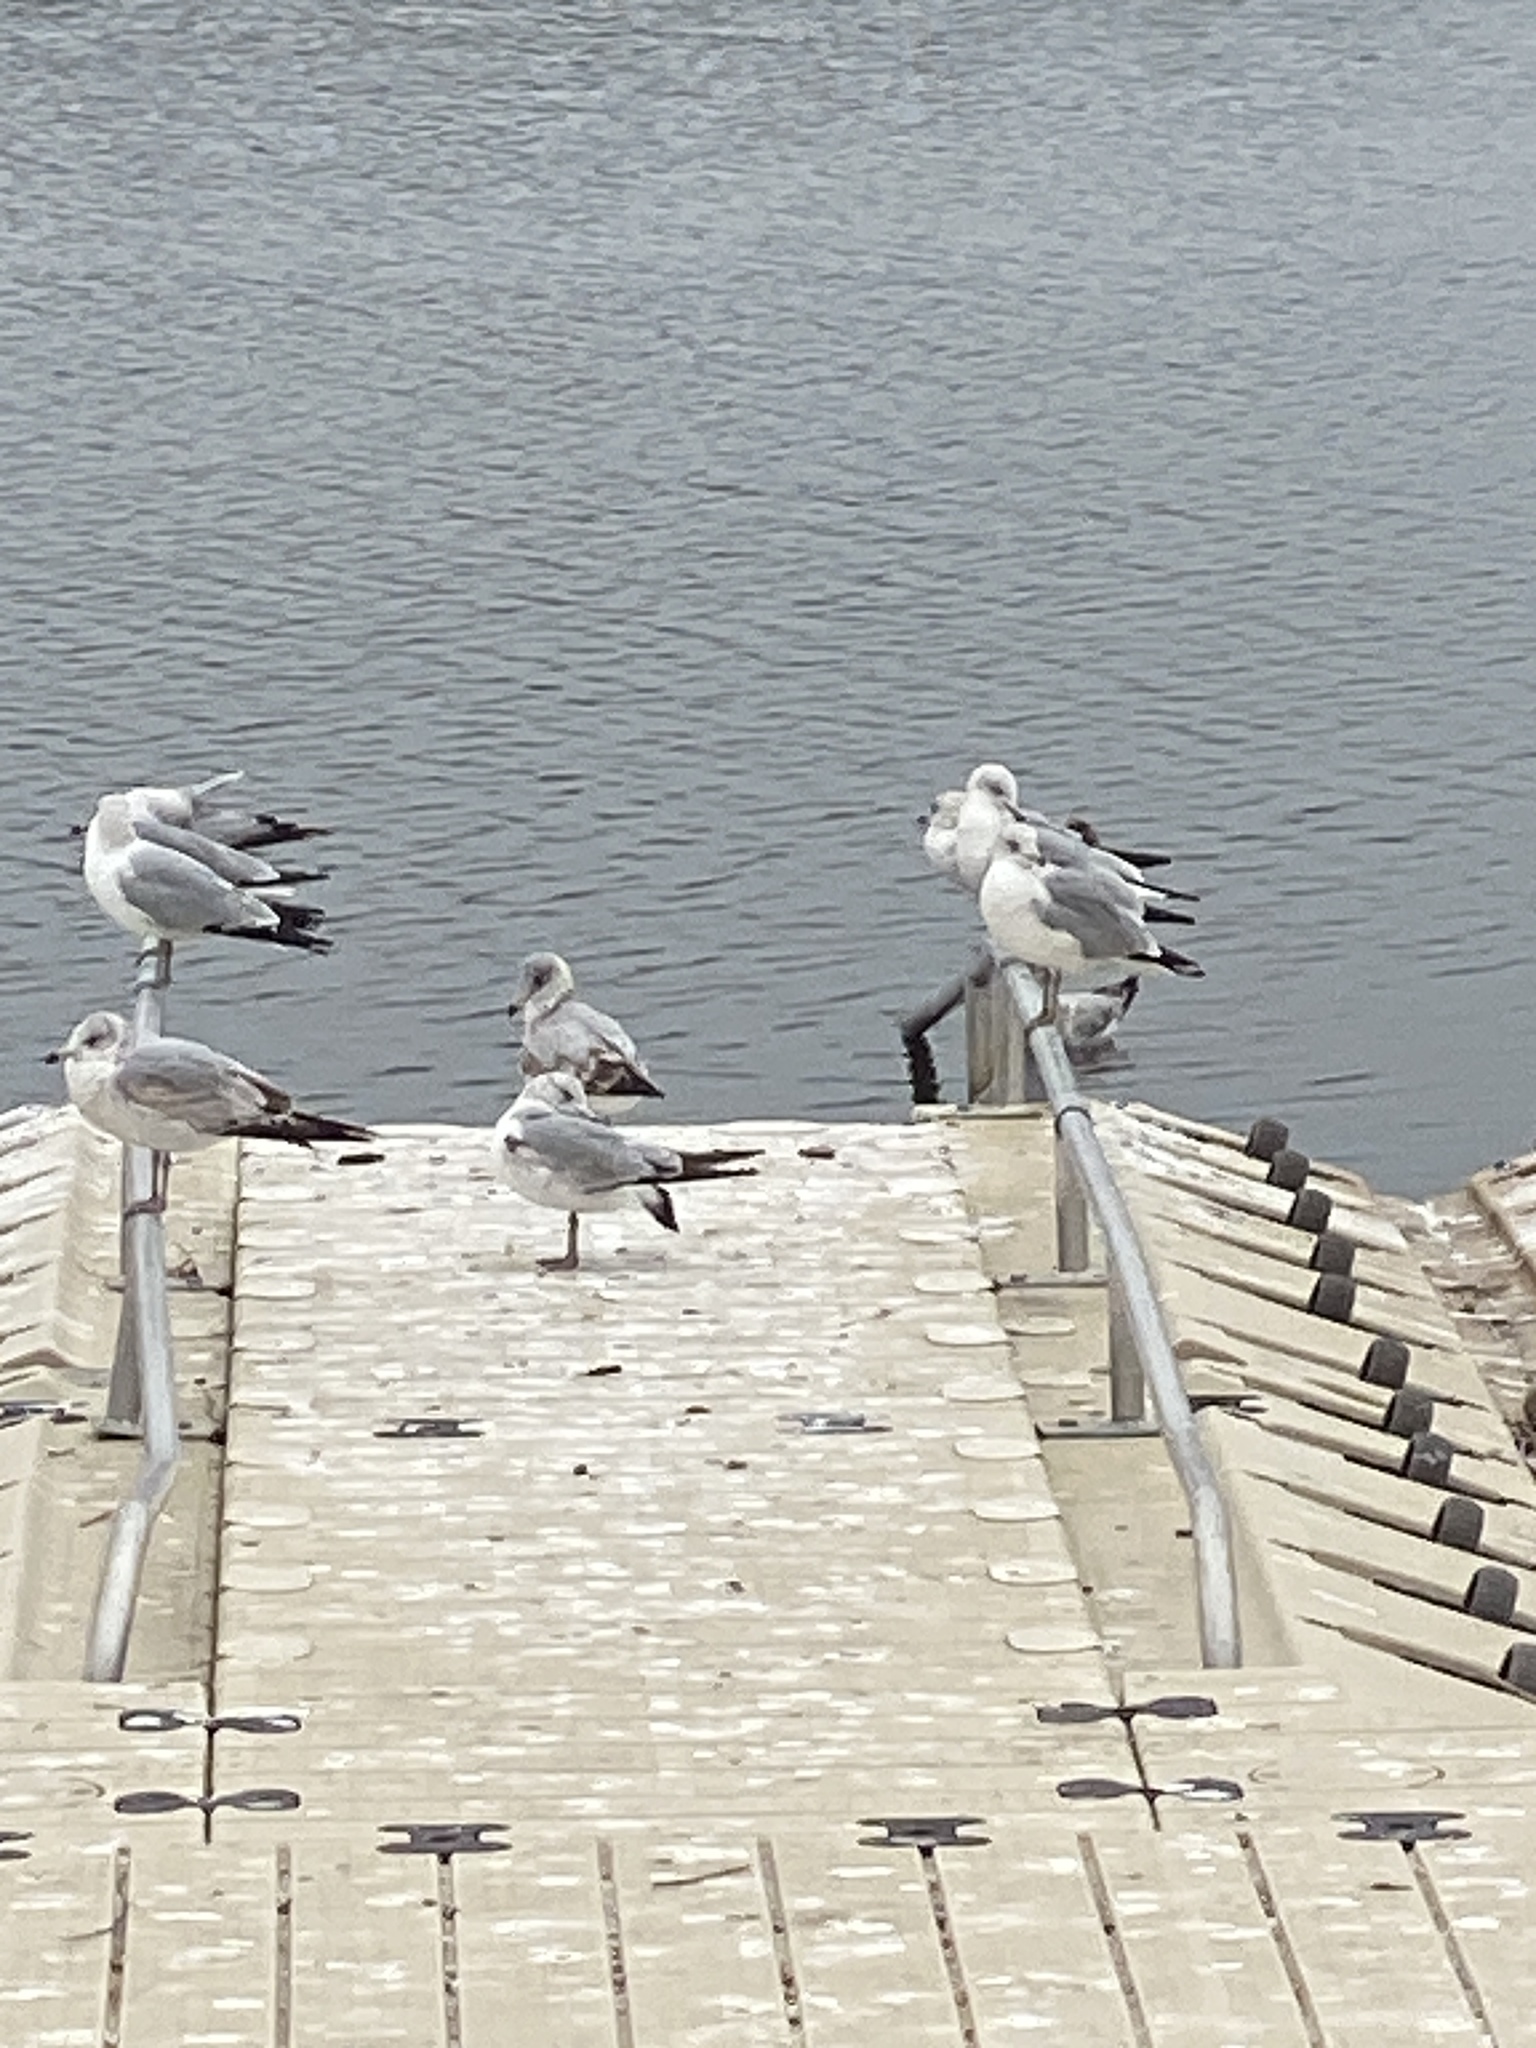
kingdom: Animalia
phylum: Chordata
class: Aves
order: Charadriiformes
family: Laridae
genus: Larus
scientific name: Larus delawarensis
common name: Ring-billed gull
